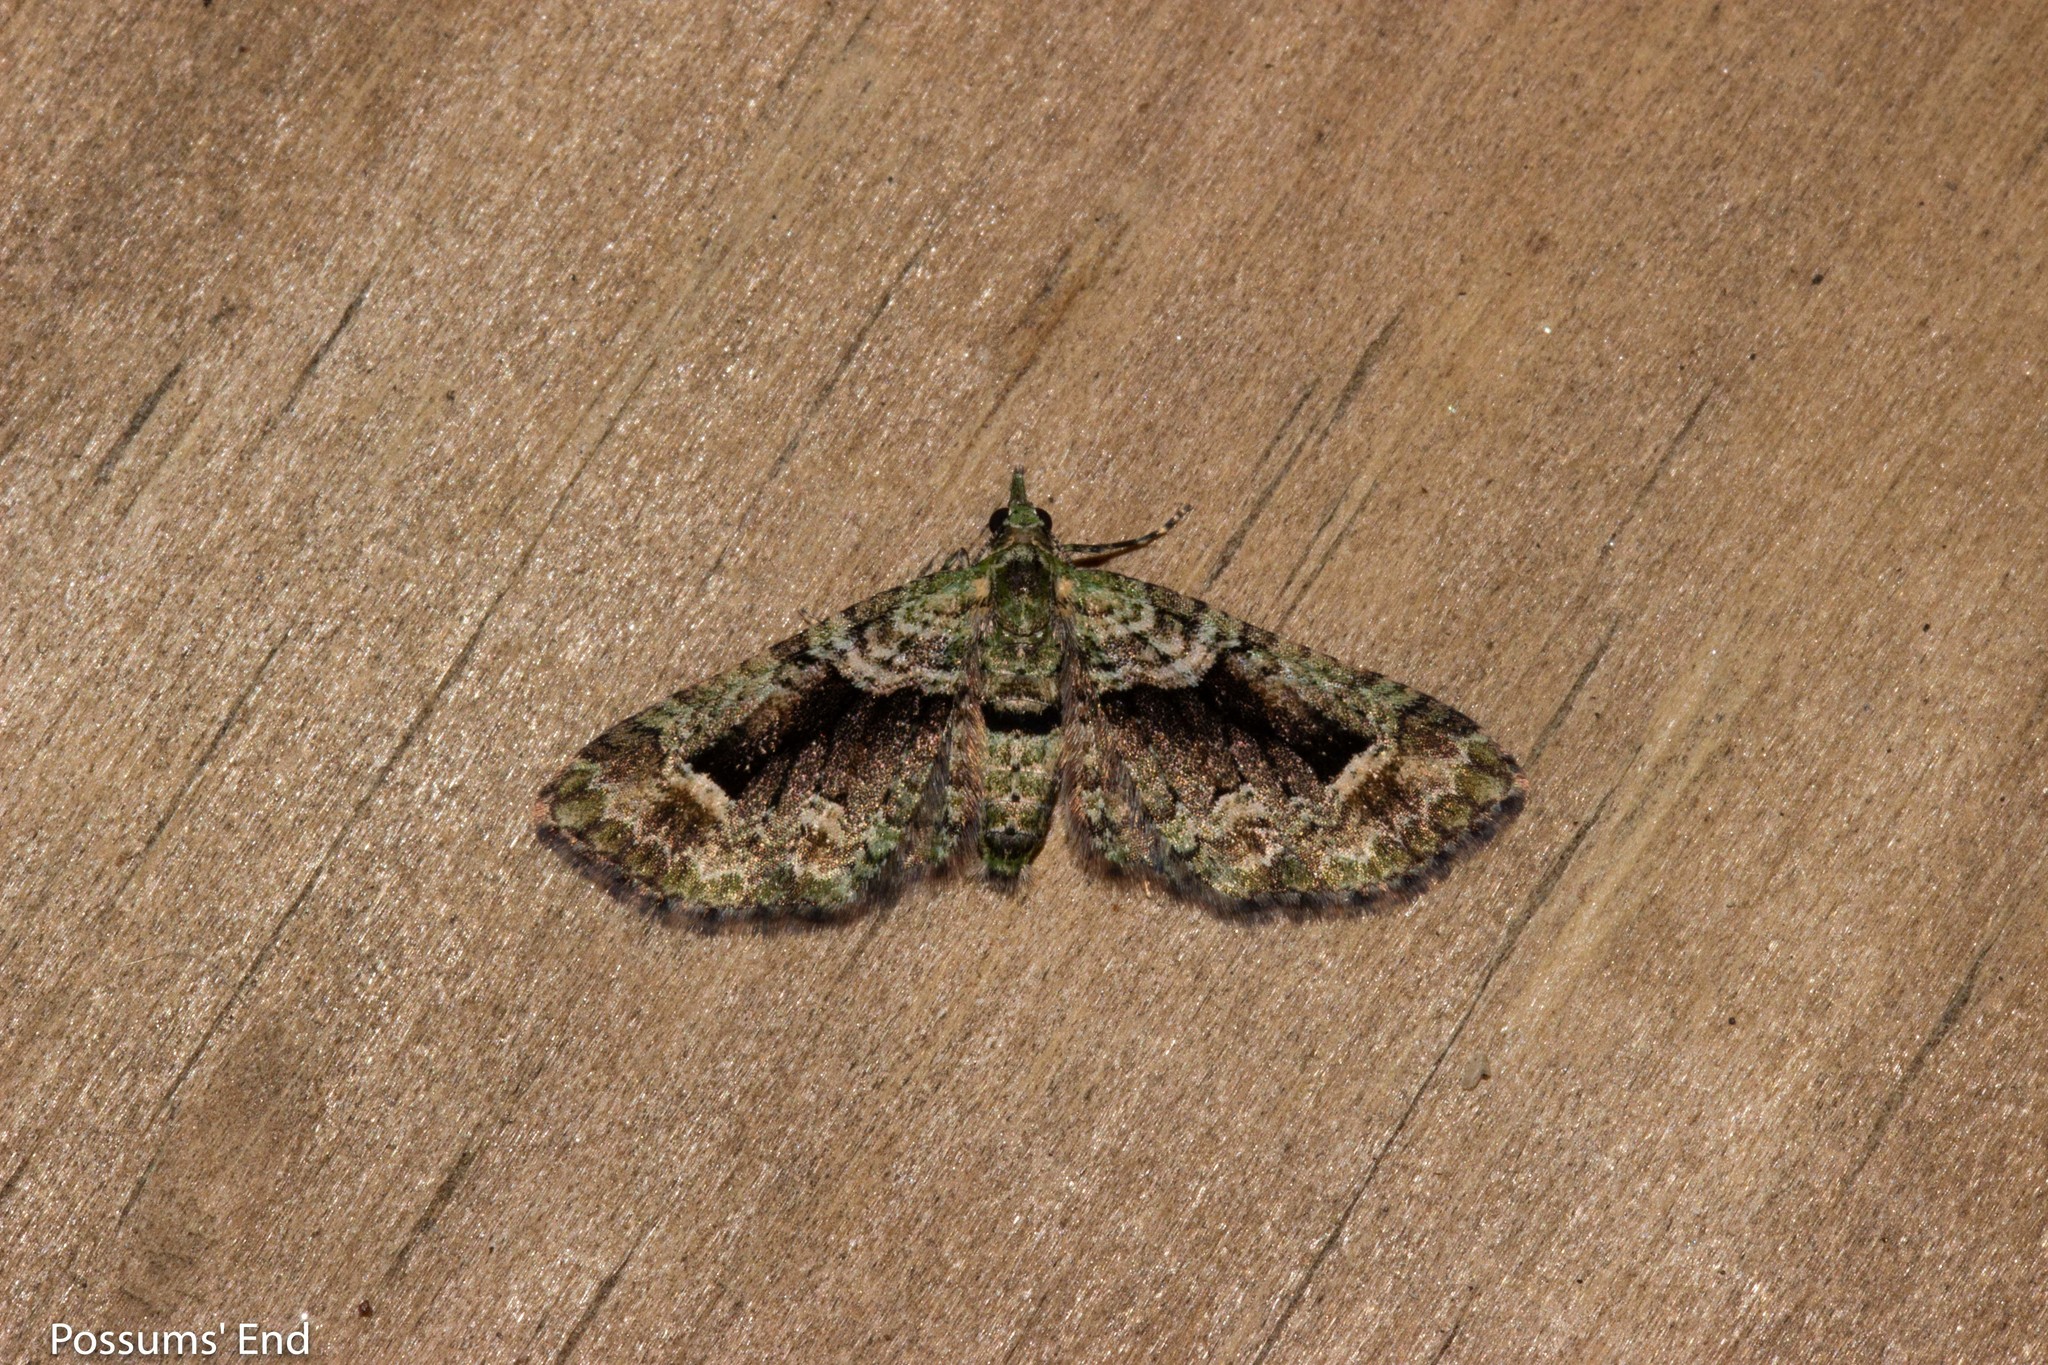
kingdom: Animalia
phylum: Arthropoda
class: Insecta
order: Lepidoptera
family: Geometridae
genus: Pasiphila
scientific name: Pasiphila suffusa
